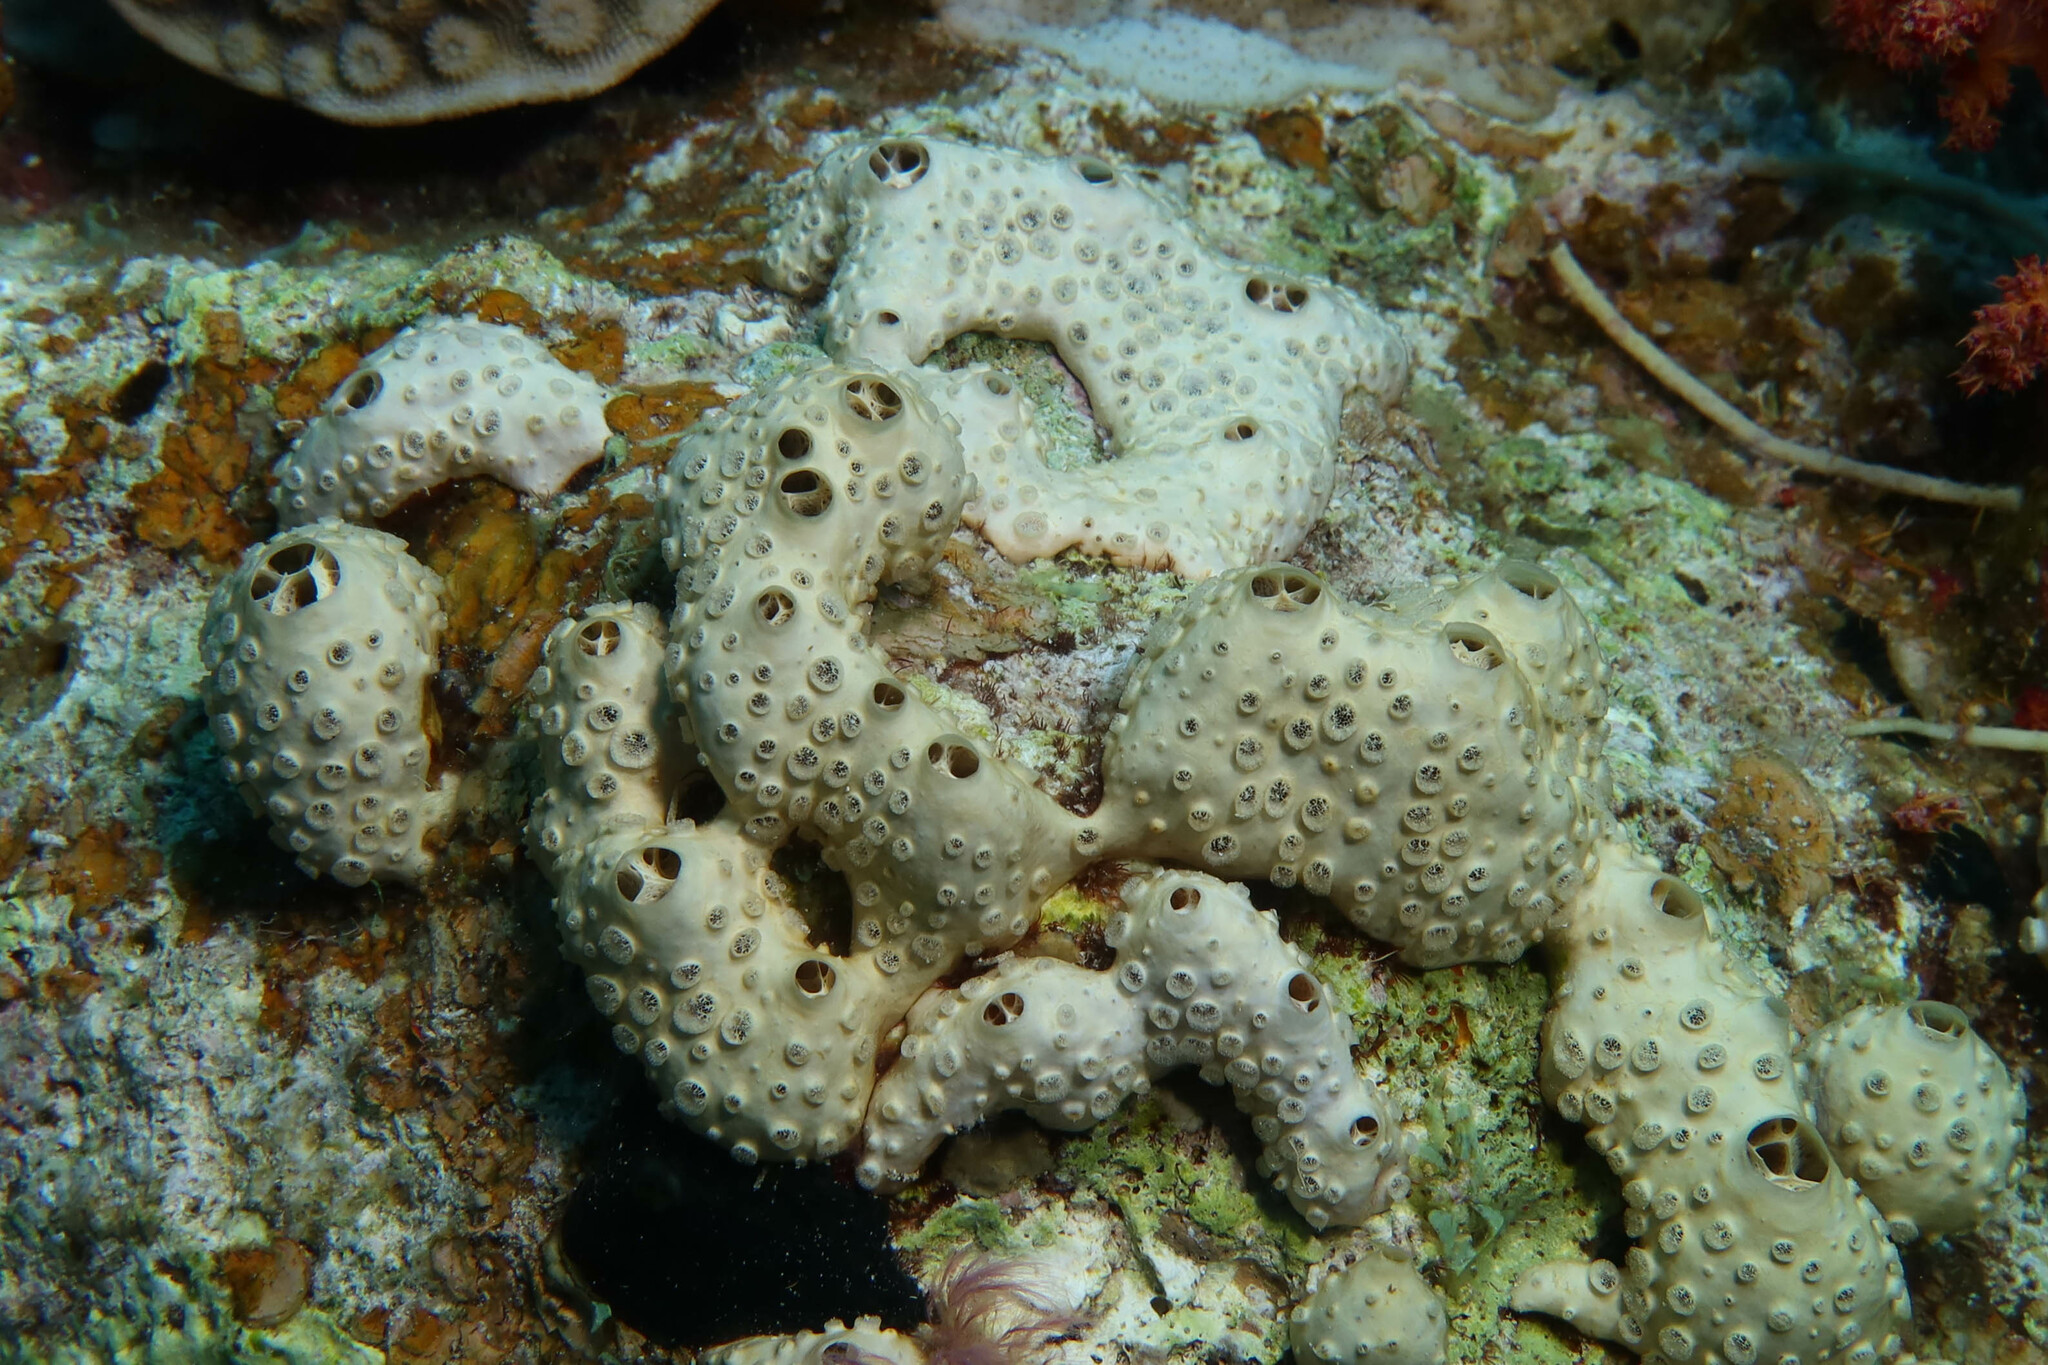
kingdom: Animalia
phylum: Porifera
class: Demospongiae
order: Poecilosclerida
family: Crellidae
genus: Crella
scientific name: Crella cyathophora
